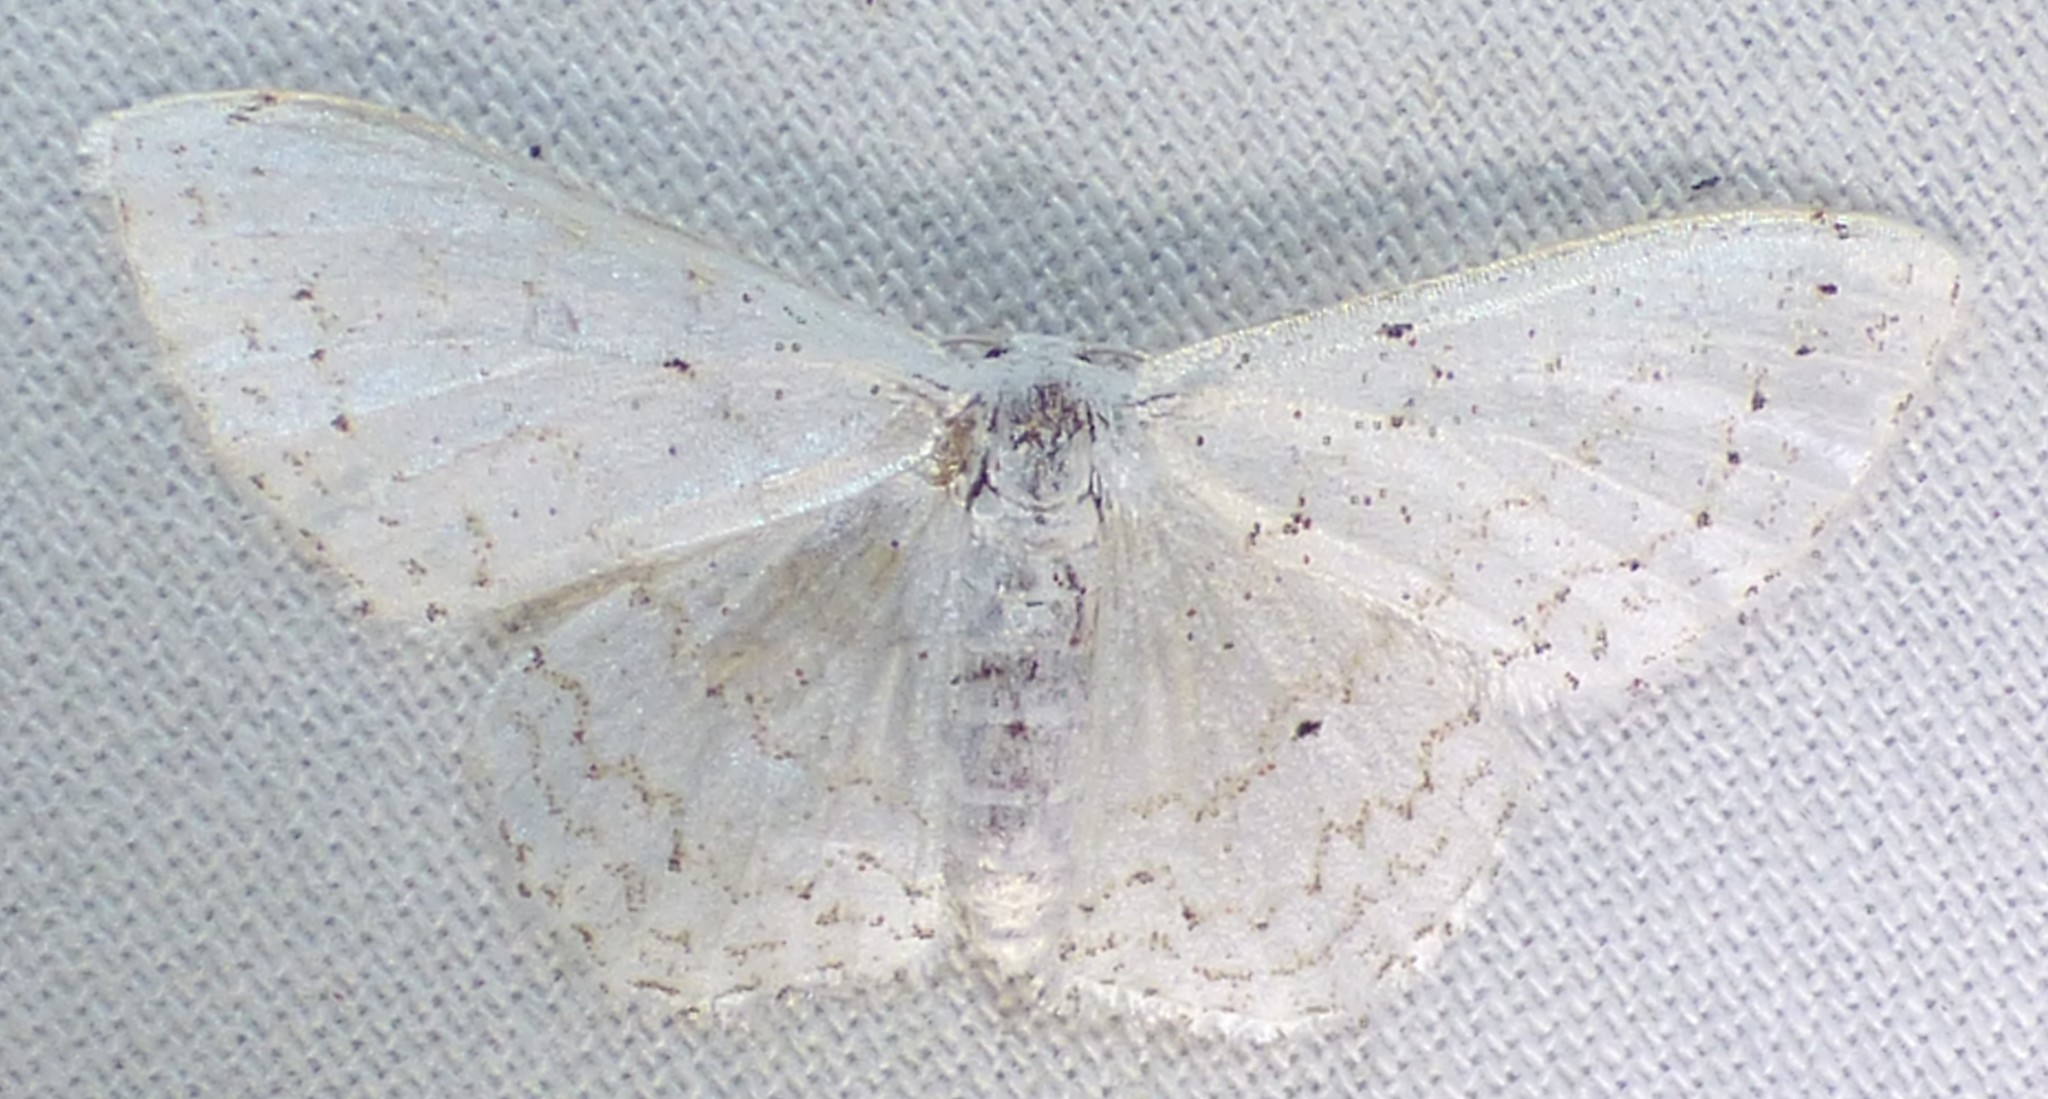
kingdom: Animalia
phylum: Arthropoda
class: Insecta
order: Lepidoptera
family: Geometridae
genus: Idaea
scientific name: Idaea tacturata
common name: Dot-lined wave
